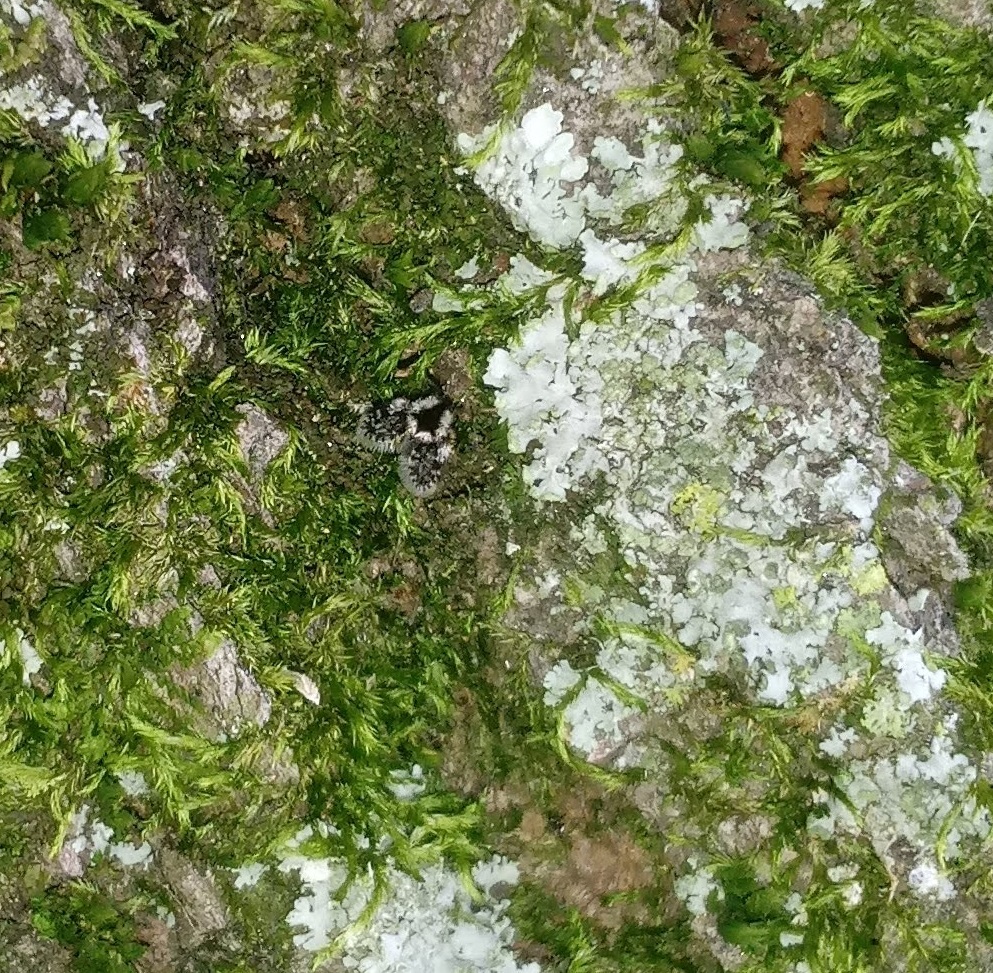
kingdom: Animalia
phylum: Arthropoda
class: Insecta
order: Diptera
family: Psychodidae
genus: Lepiseodina
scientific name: Lepiseodina
